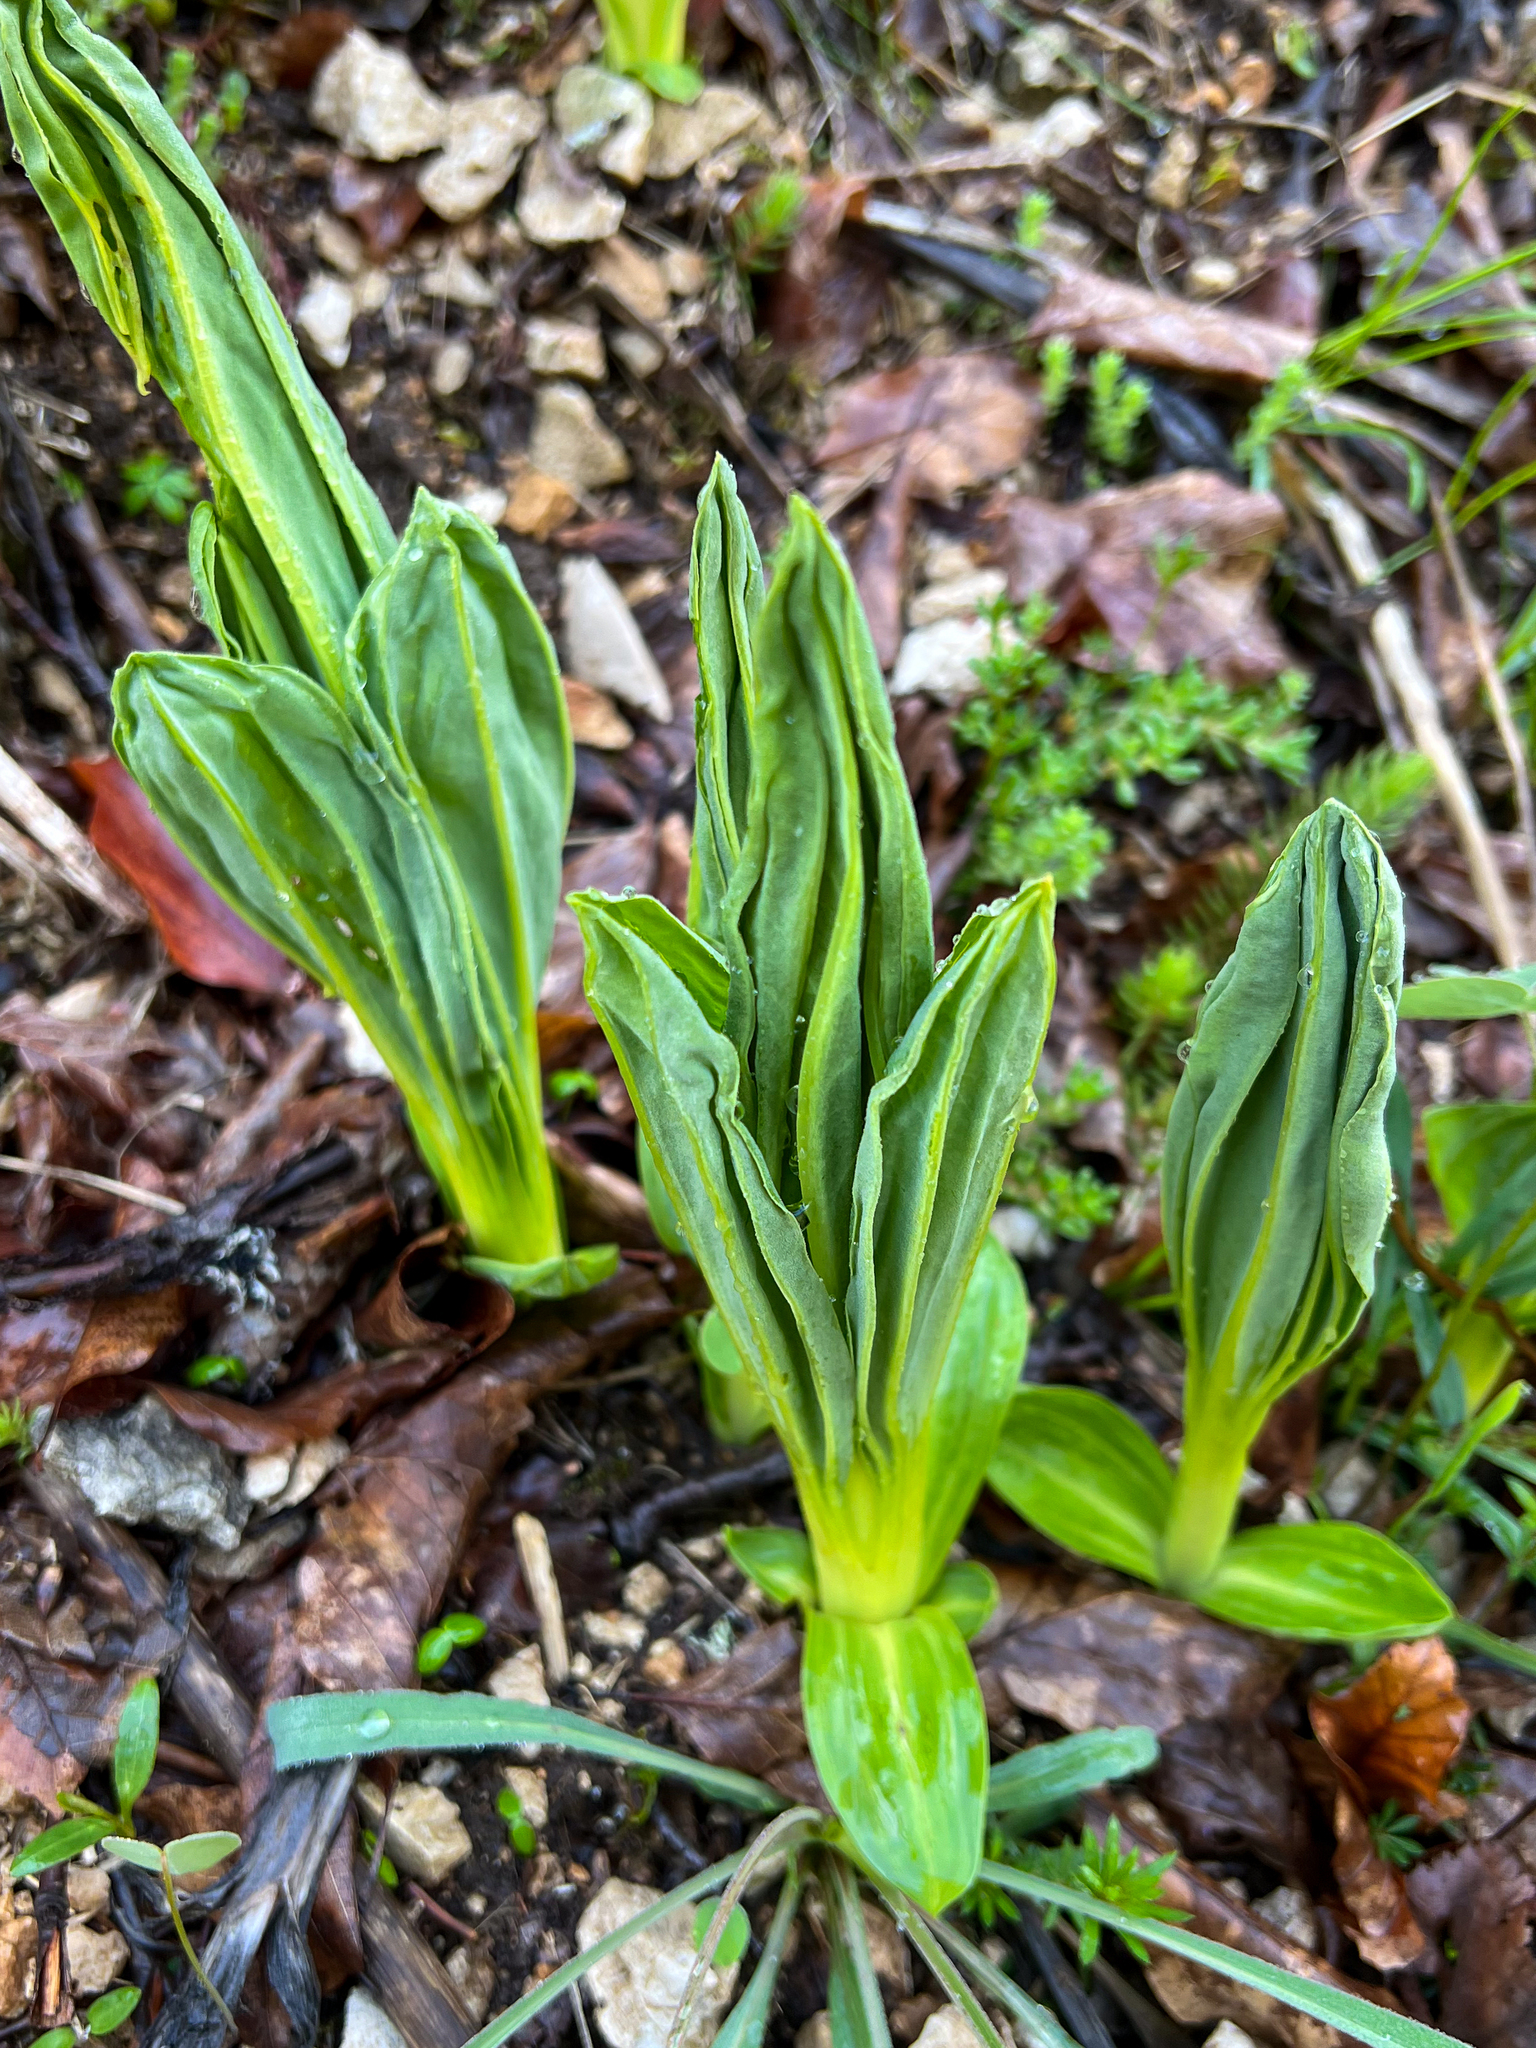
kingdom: Plantae
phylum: Tracheophyta
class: Magnoliopsida
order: Gentianales
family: Gentianaceae
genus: Gentiana
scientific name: Gentiana lutea
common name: Great yellow gentian
